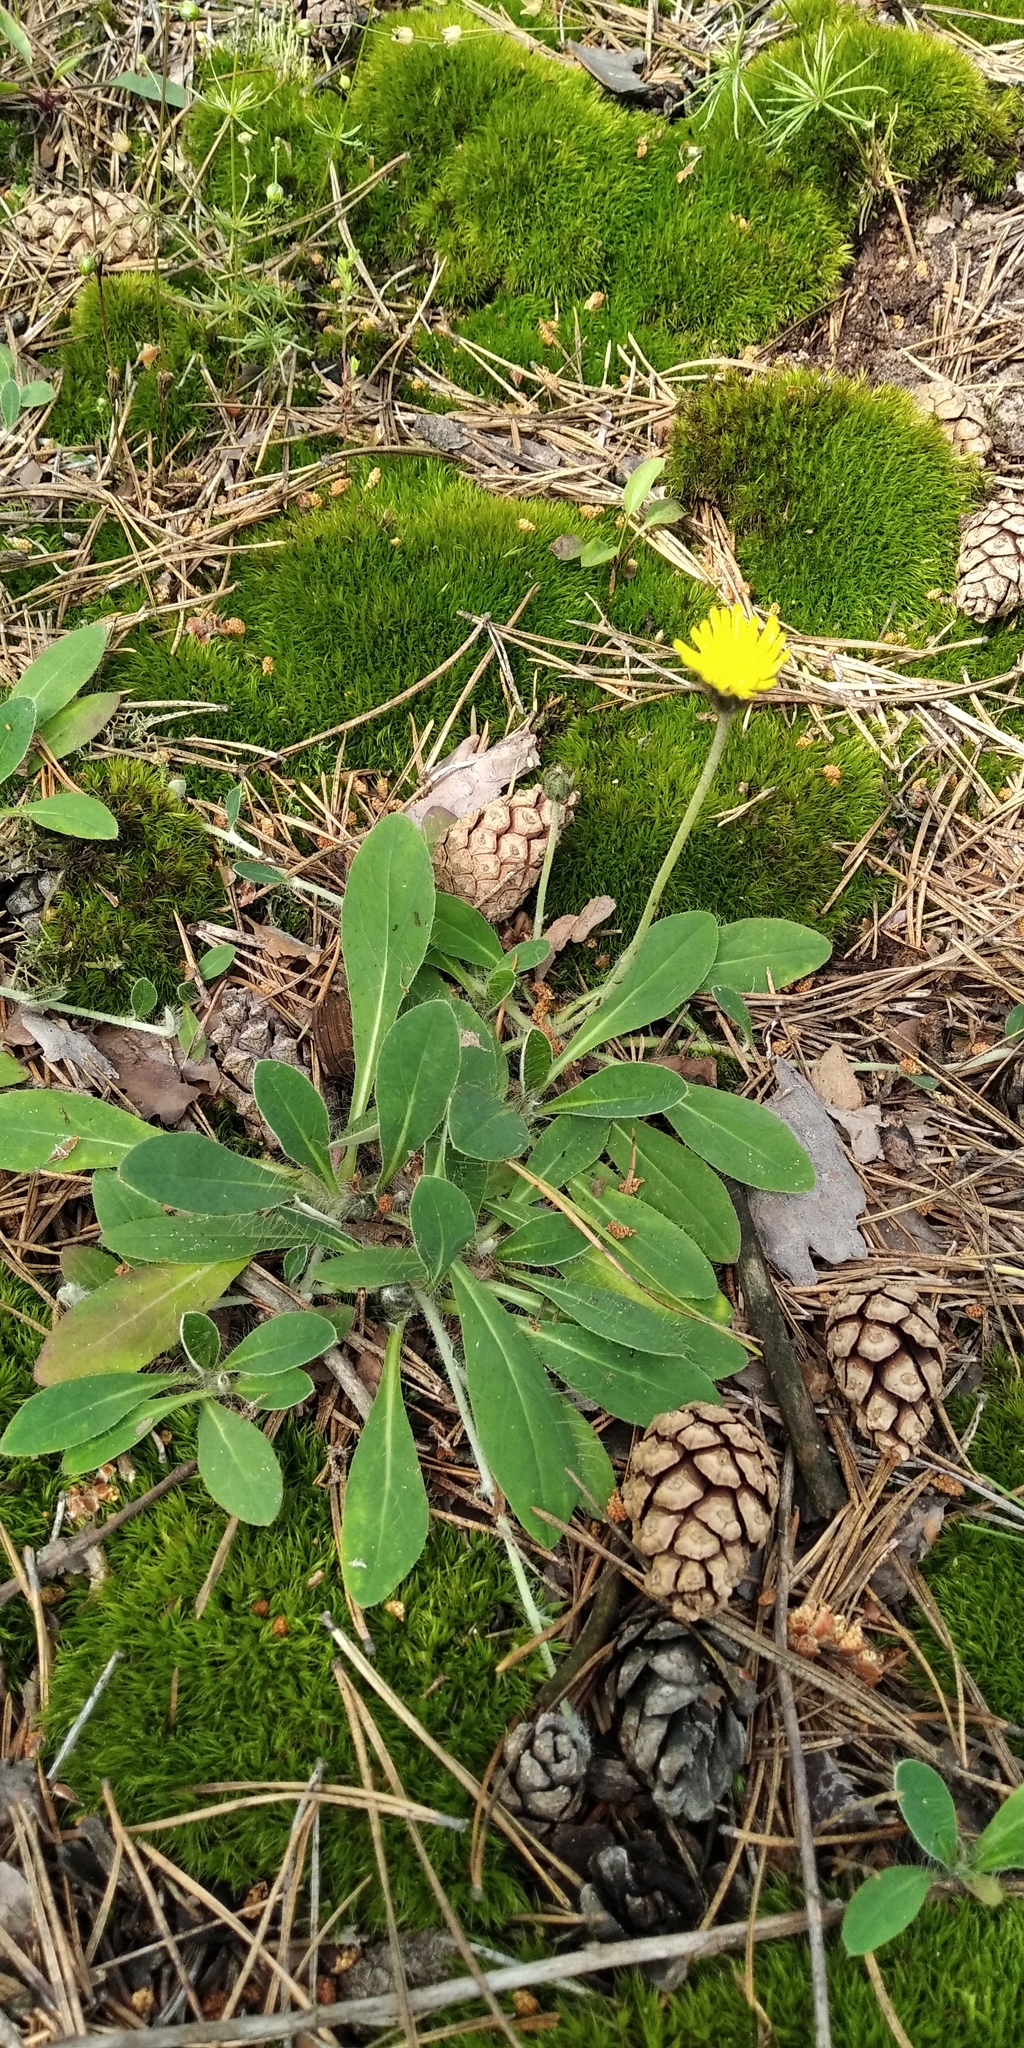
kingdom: Plantae
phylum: Tracheophyta
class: Magnoliopsida
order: Asterales
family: Asteraceae
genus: Pilosella
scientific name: Pilosella officinarum
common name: Mouse-ear hawkweed
